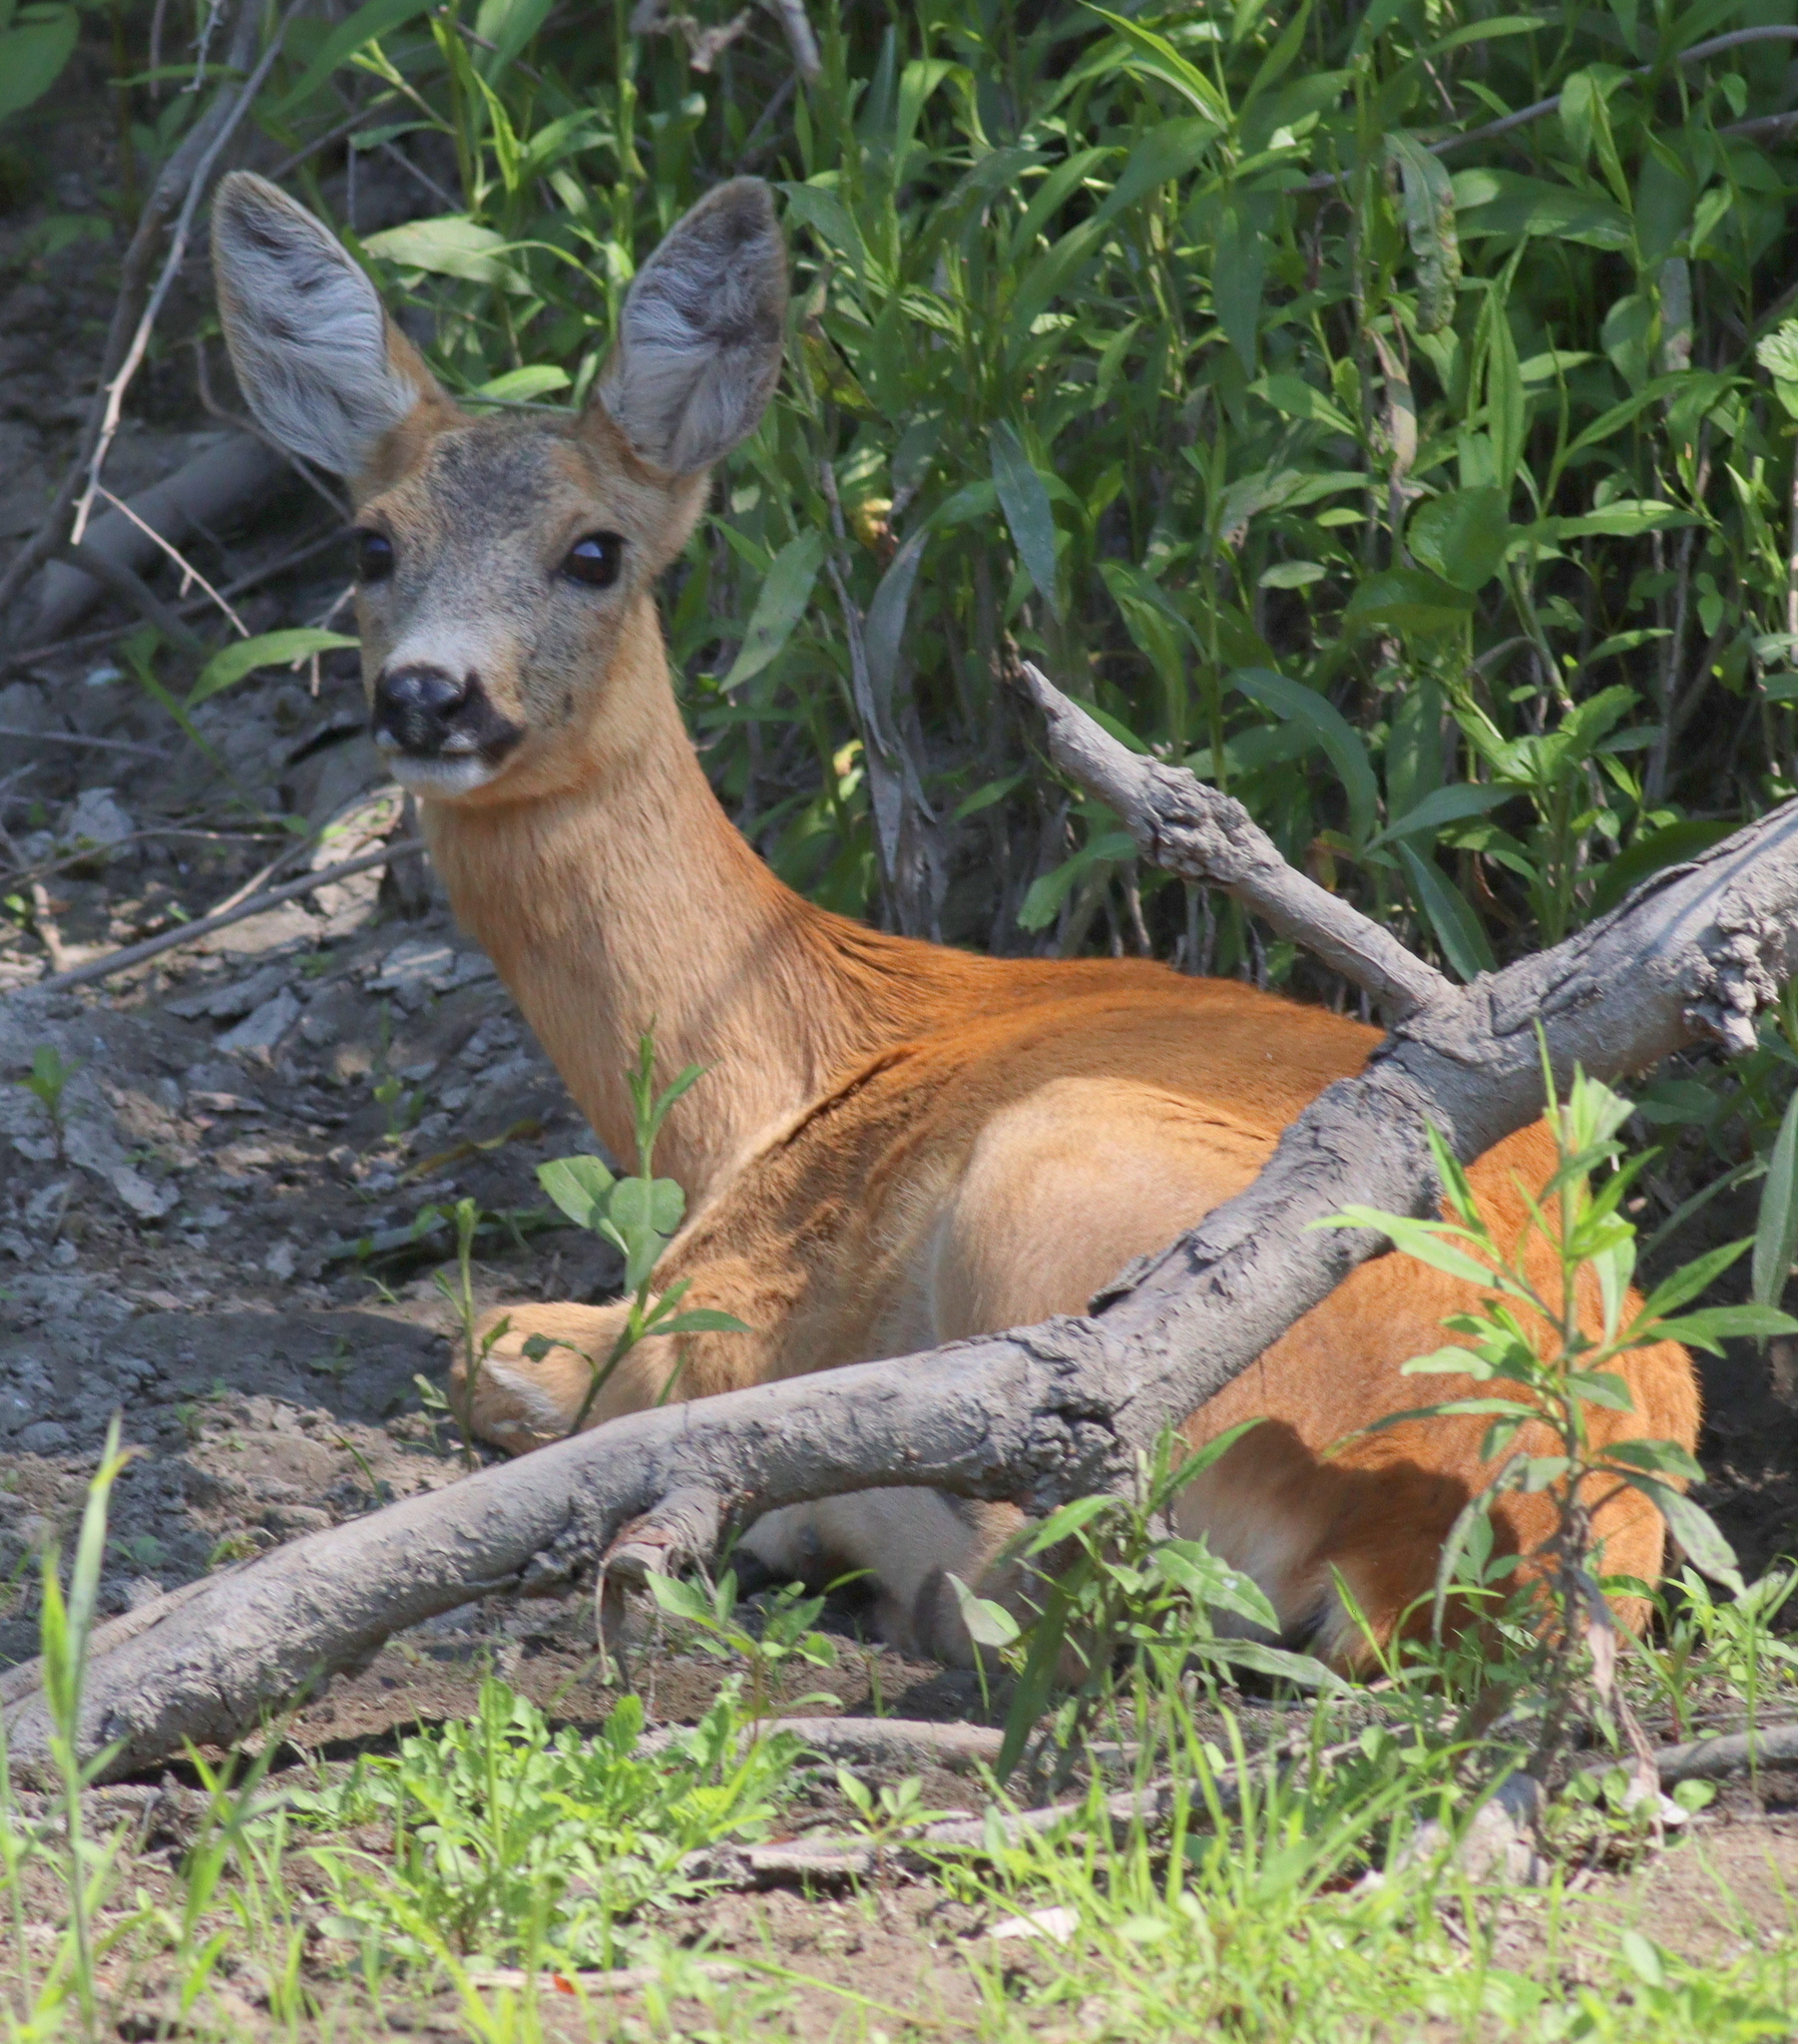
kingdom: Animalia
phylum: Chordata
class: Mammalia
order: Artiodactyla
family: Cervidae
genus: Capreolus
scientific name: Capreolus capreolus
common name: Western roe deer
